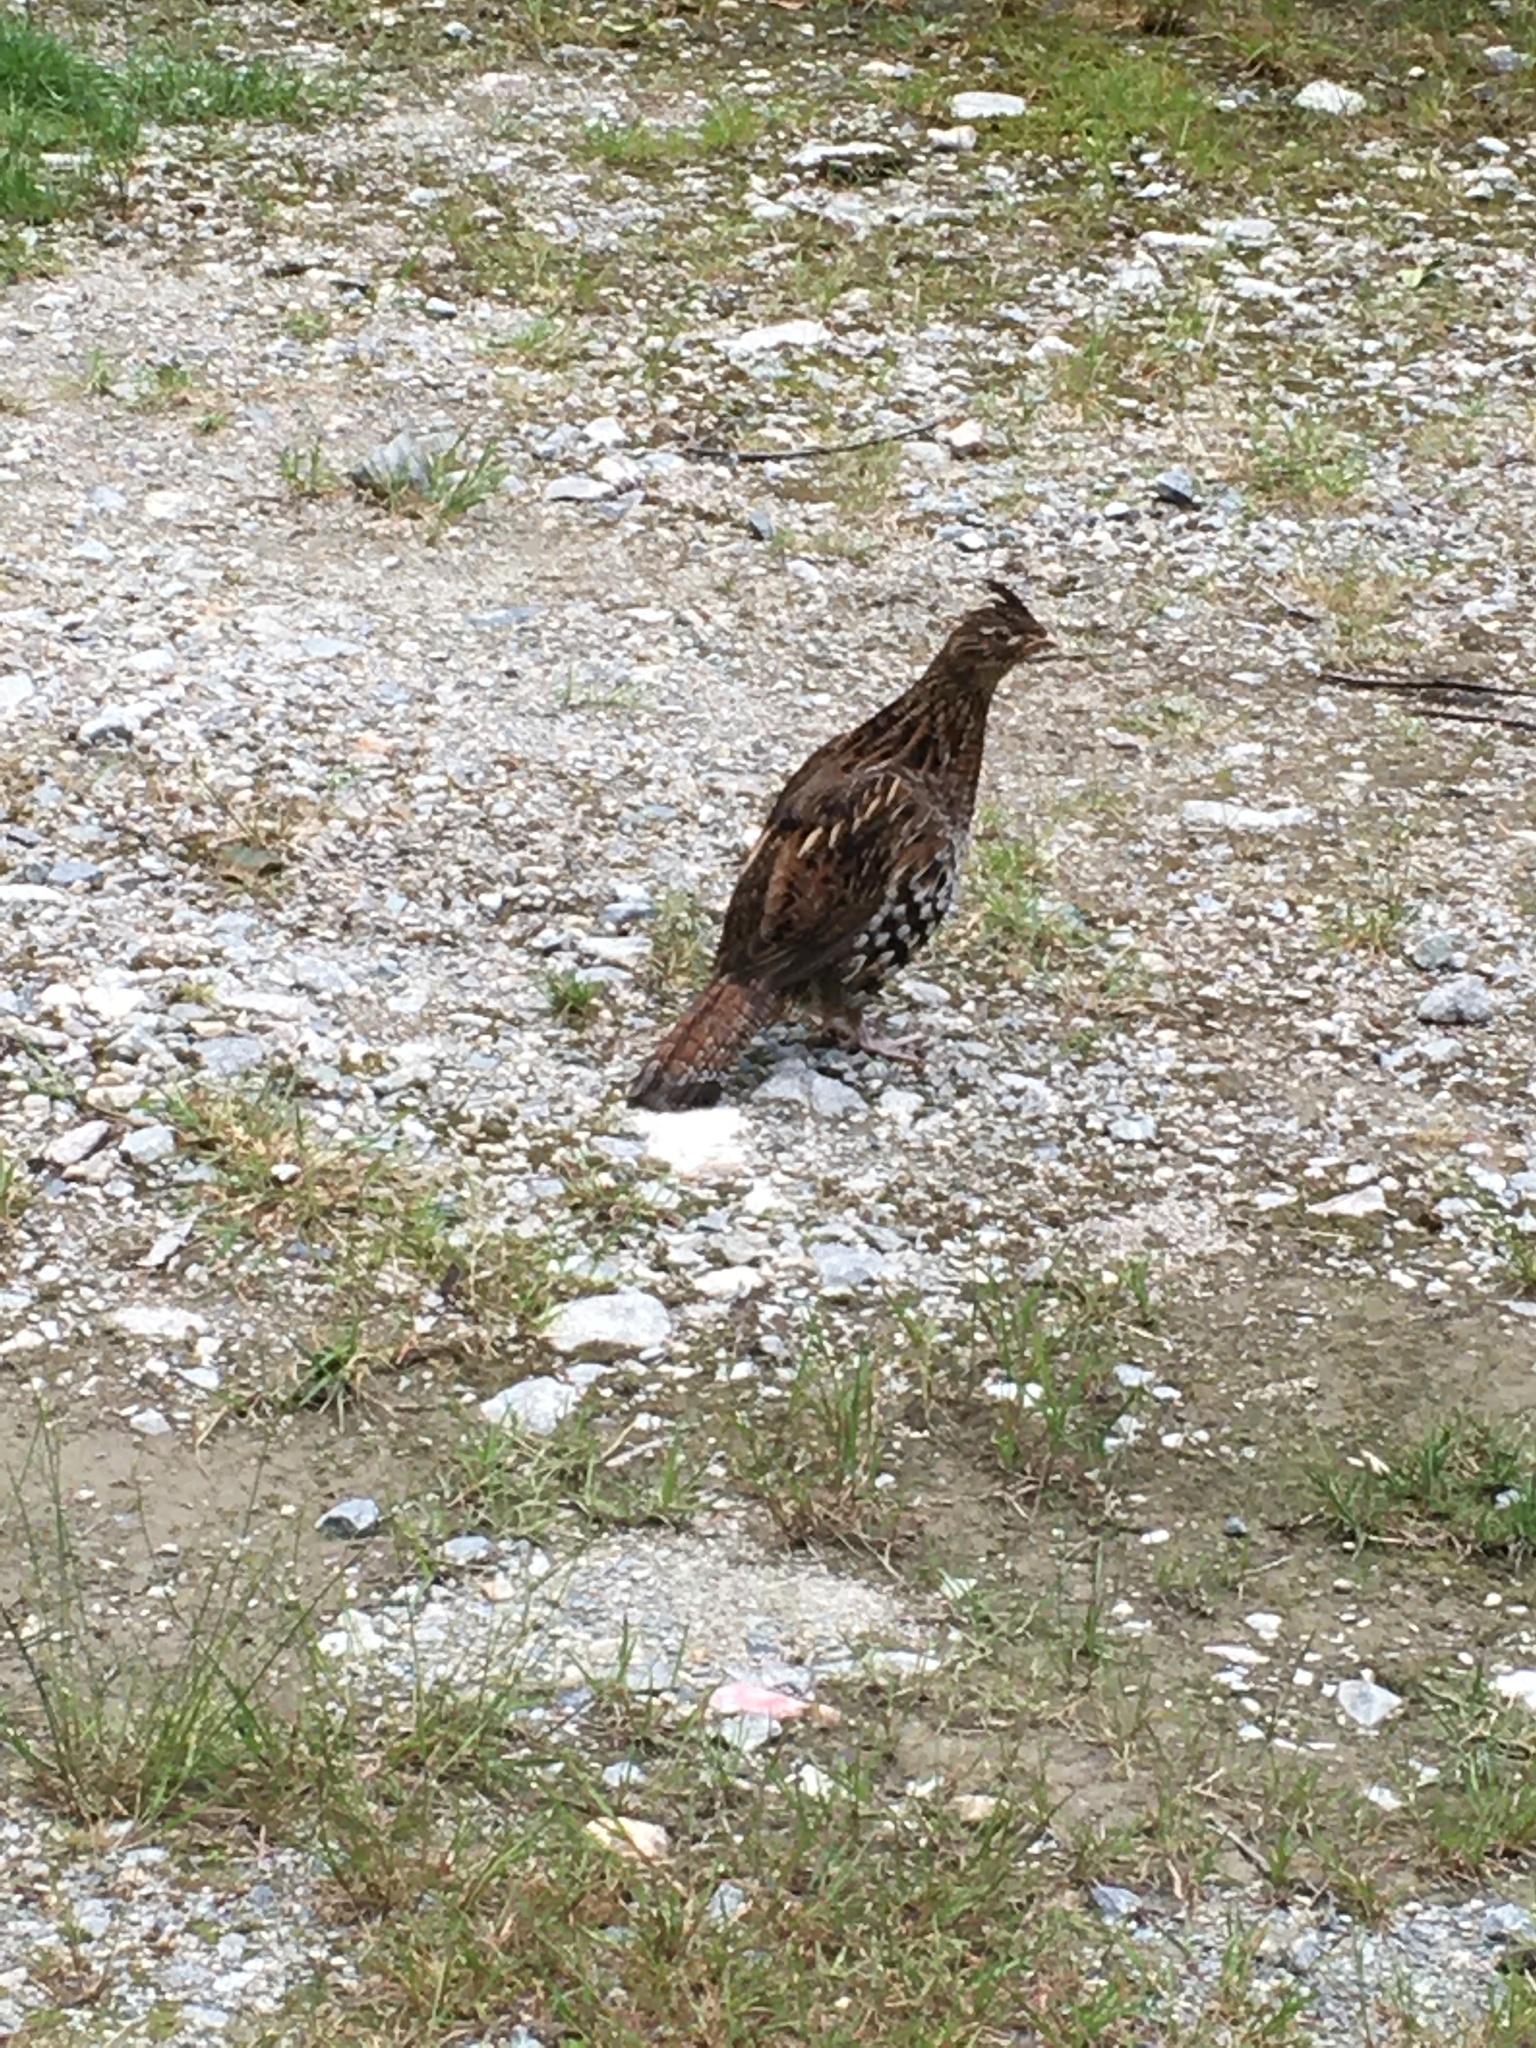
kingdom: Animalia
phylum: Chordata
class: Aves
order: Galliformes
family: Phasianidae
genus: Bonasa
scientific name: Bonasa umbellus
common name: Ruffed grouse
